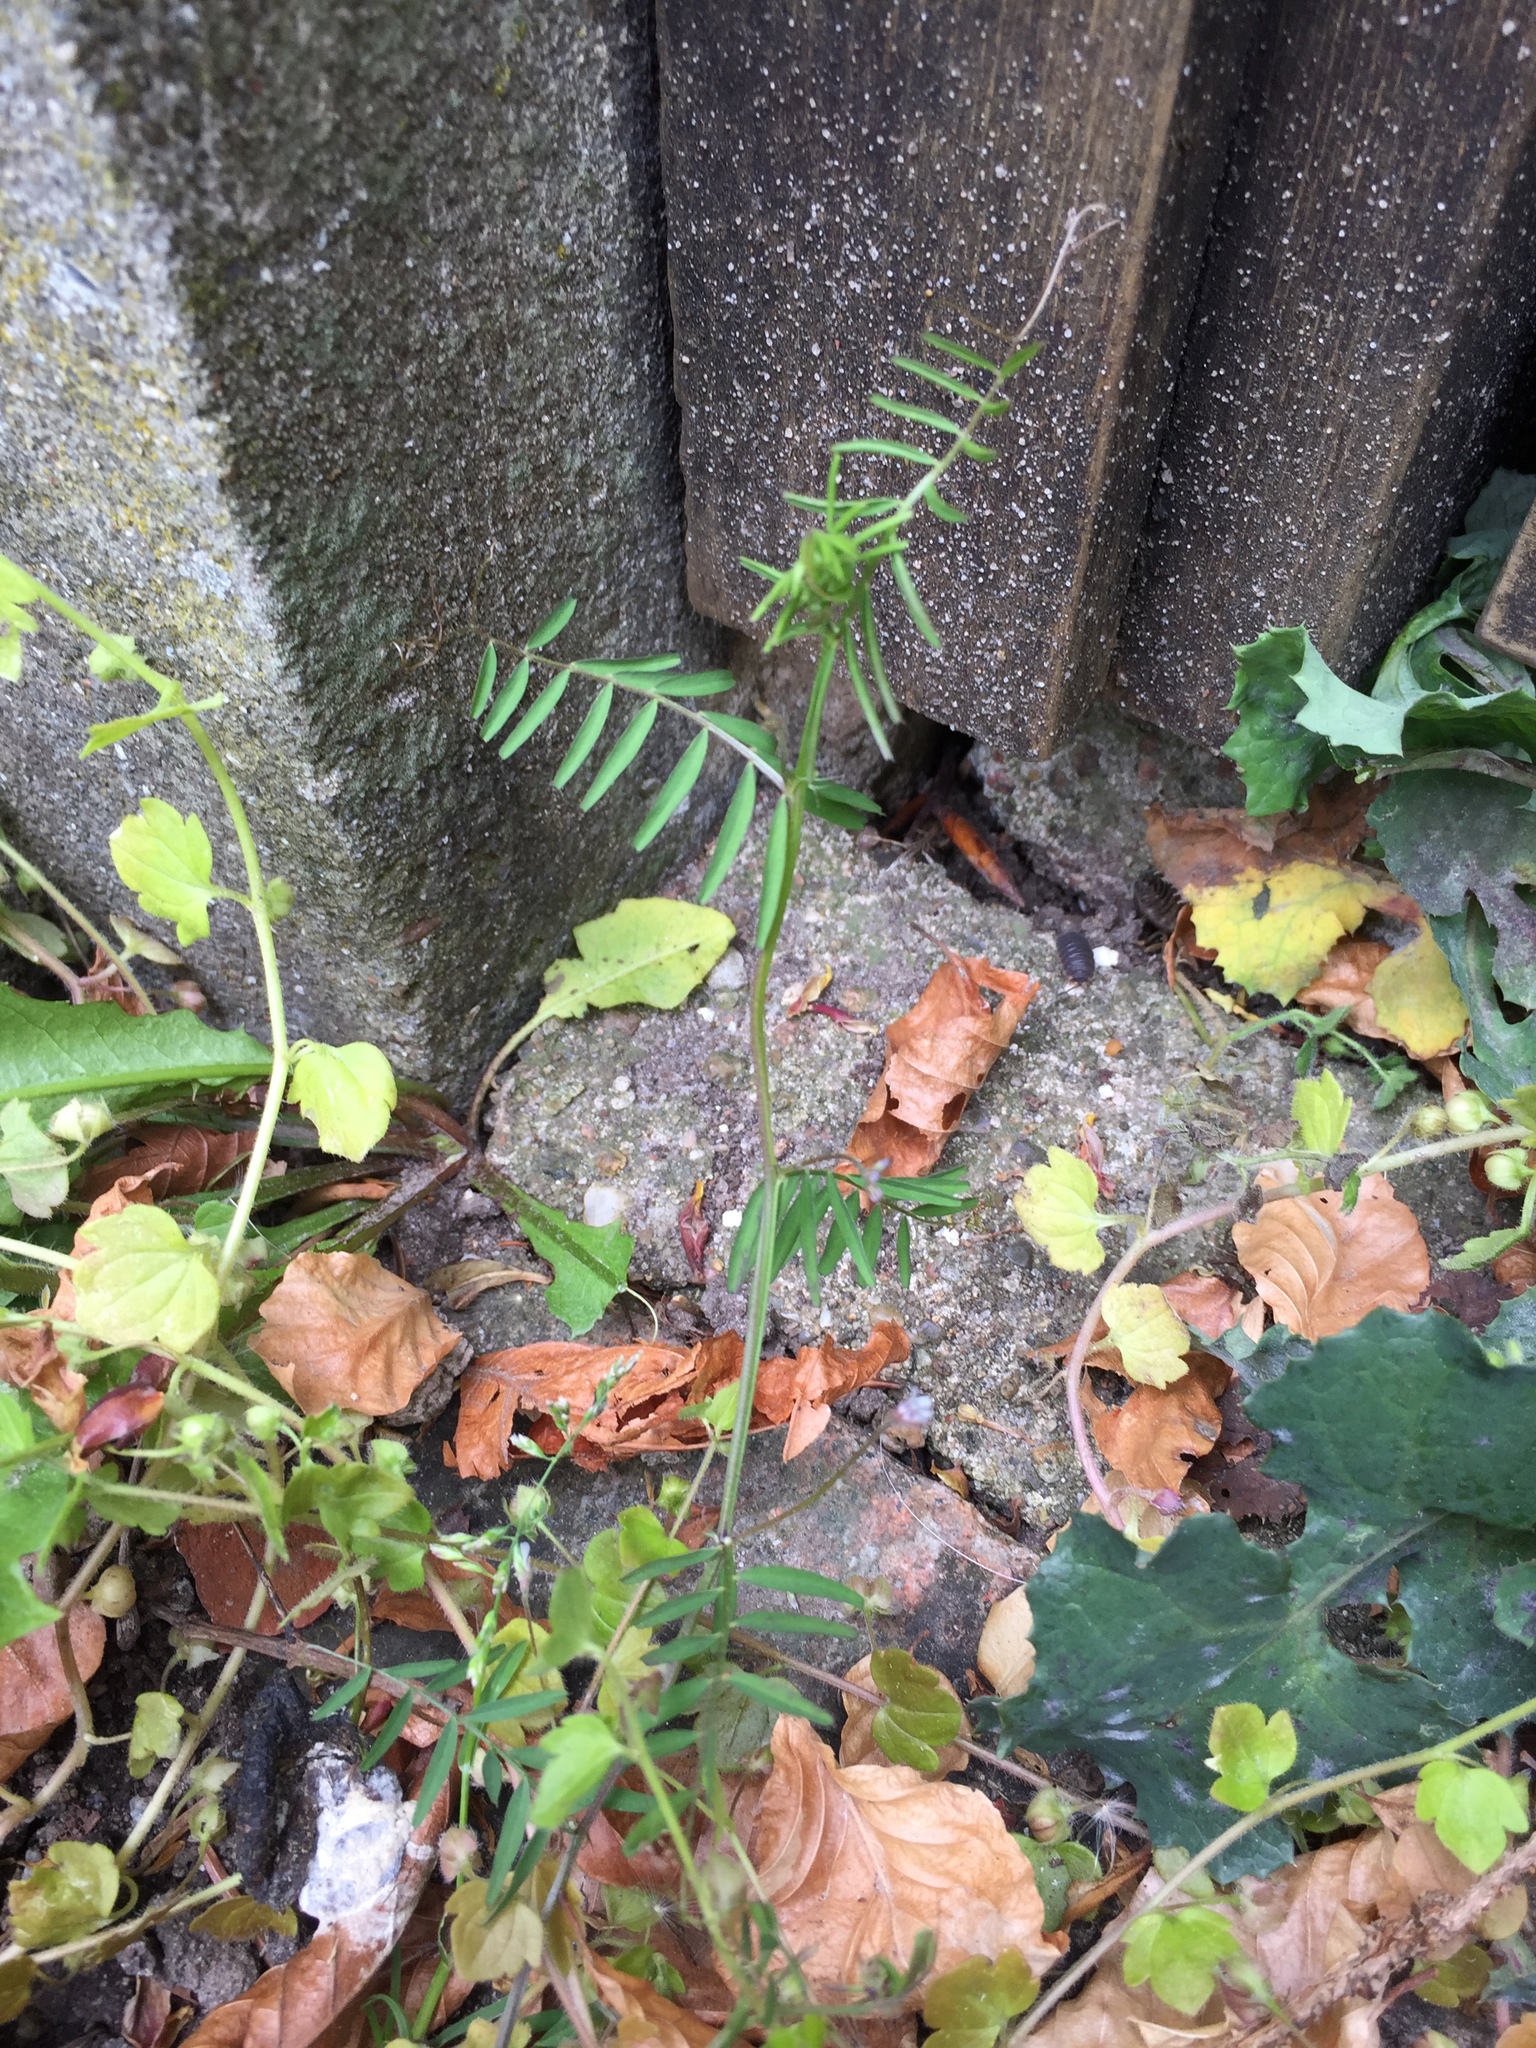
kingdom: Plantae
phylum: Tracheophyta
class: Magnoliopsida
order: Fabales
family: Fabaceae
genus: Vicia
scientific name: Vicia hirsuta
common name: Tiny vetch
